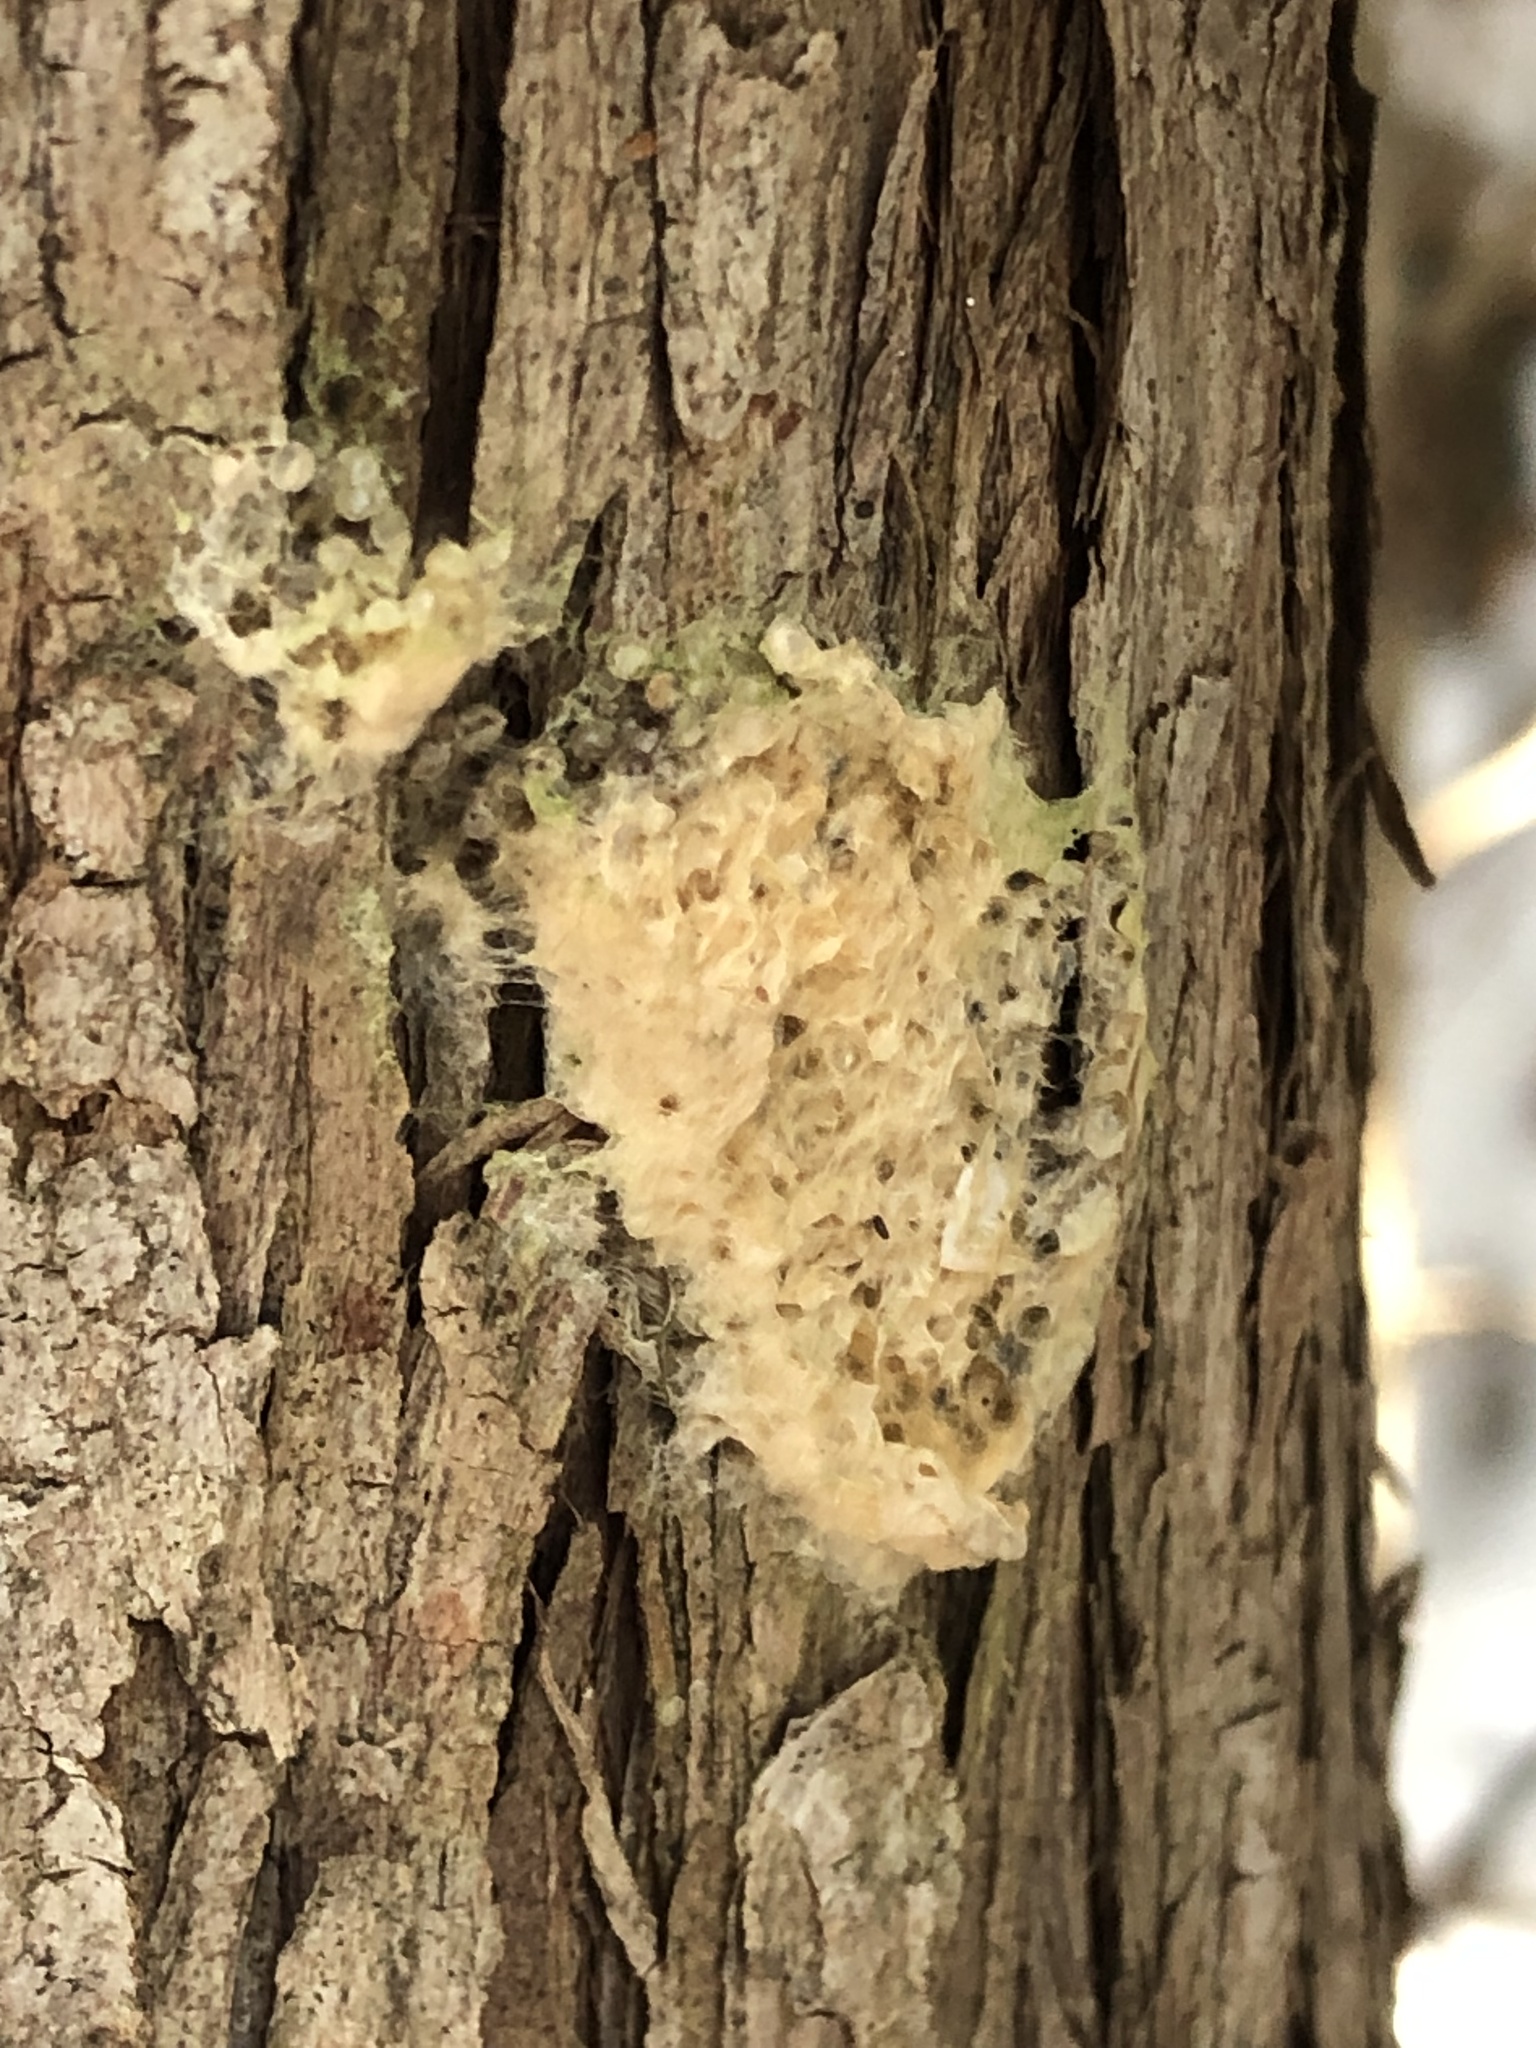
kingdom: Animalia
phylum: Arthropoda
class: Insecta
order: Lepidoptera
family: Erebidae
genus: Lymantria
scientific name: Lymantria dispar
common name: Gypsy moth
